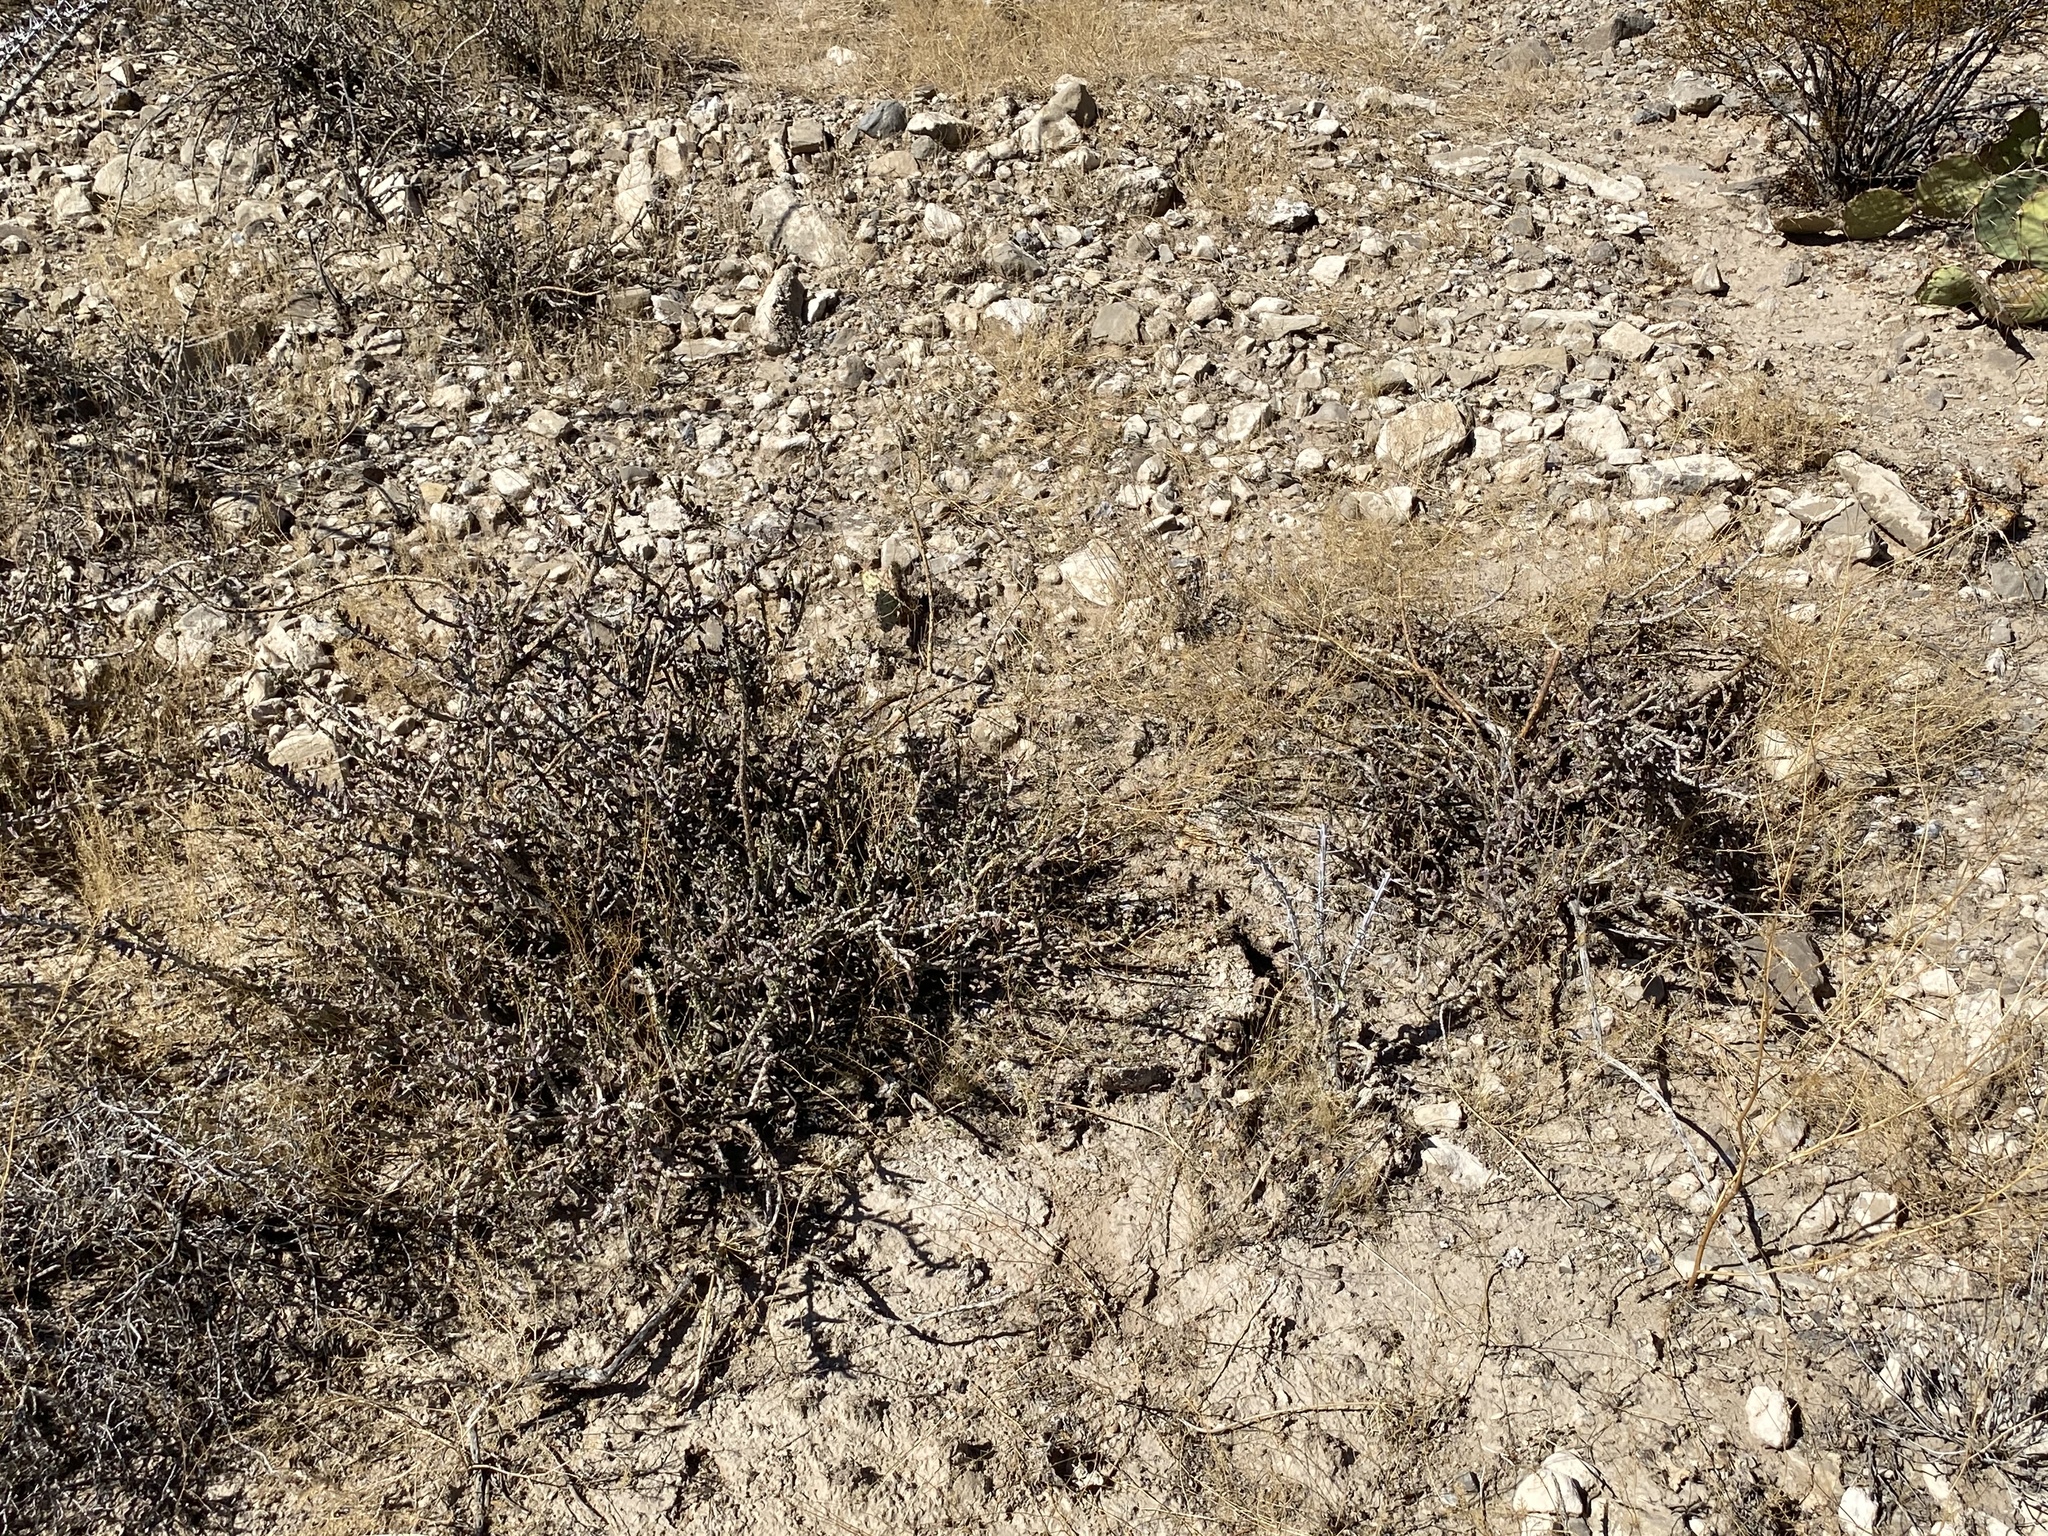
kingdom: Plantae
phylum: Tracheophyta
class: Magnoliopsida
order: Caryophyllales
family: Cactaceae
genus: Cylindropuntia
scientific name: Cylindropuntia leptocaulis
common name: Christmas cactus
